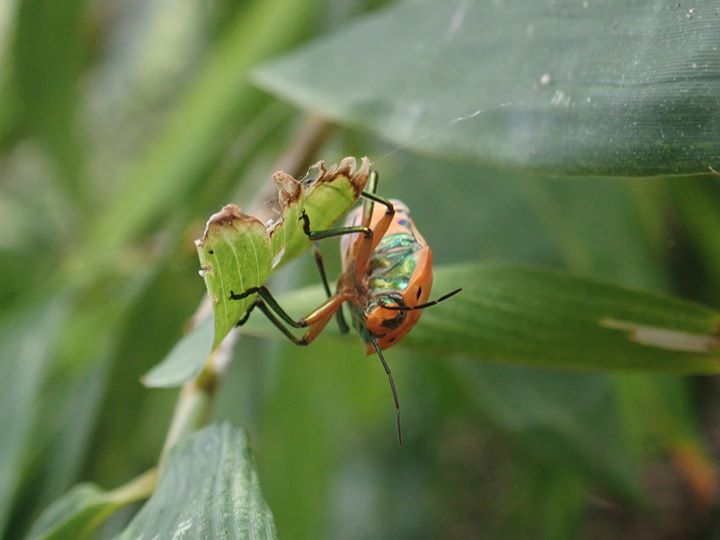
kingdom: Animalia
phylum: Arthropoda
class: Insecta
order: Hemiptera
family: Scutelleridae
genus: Cantao
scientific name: Cantao ocellatus
